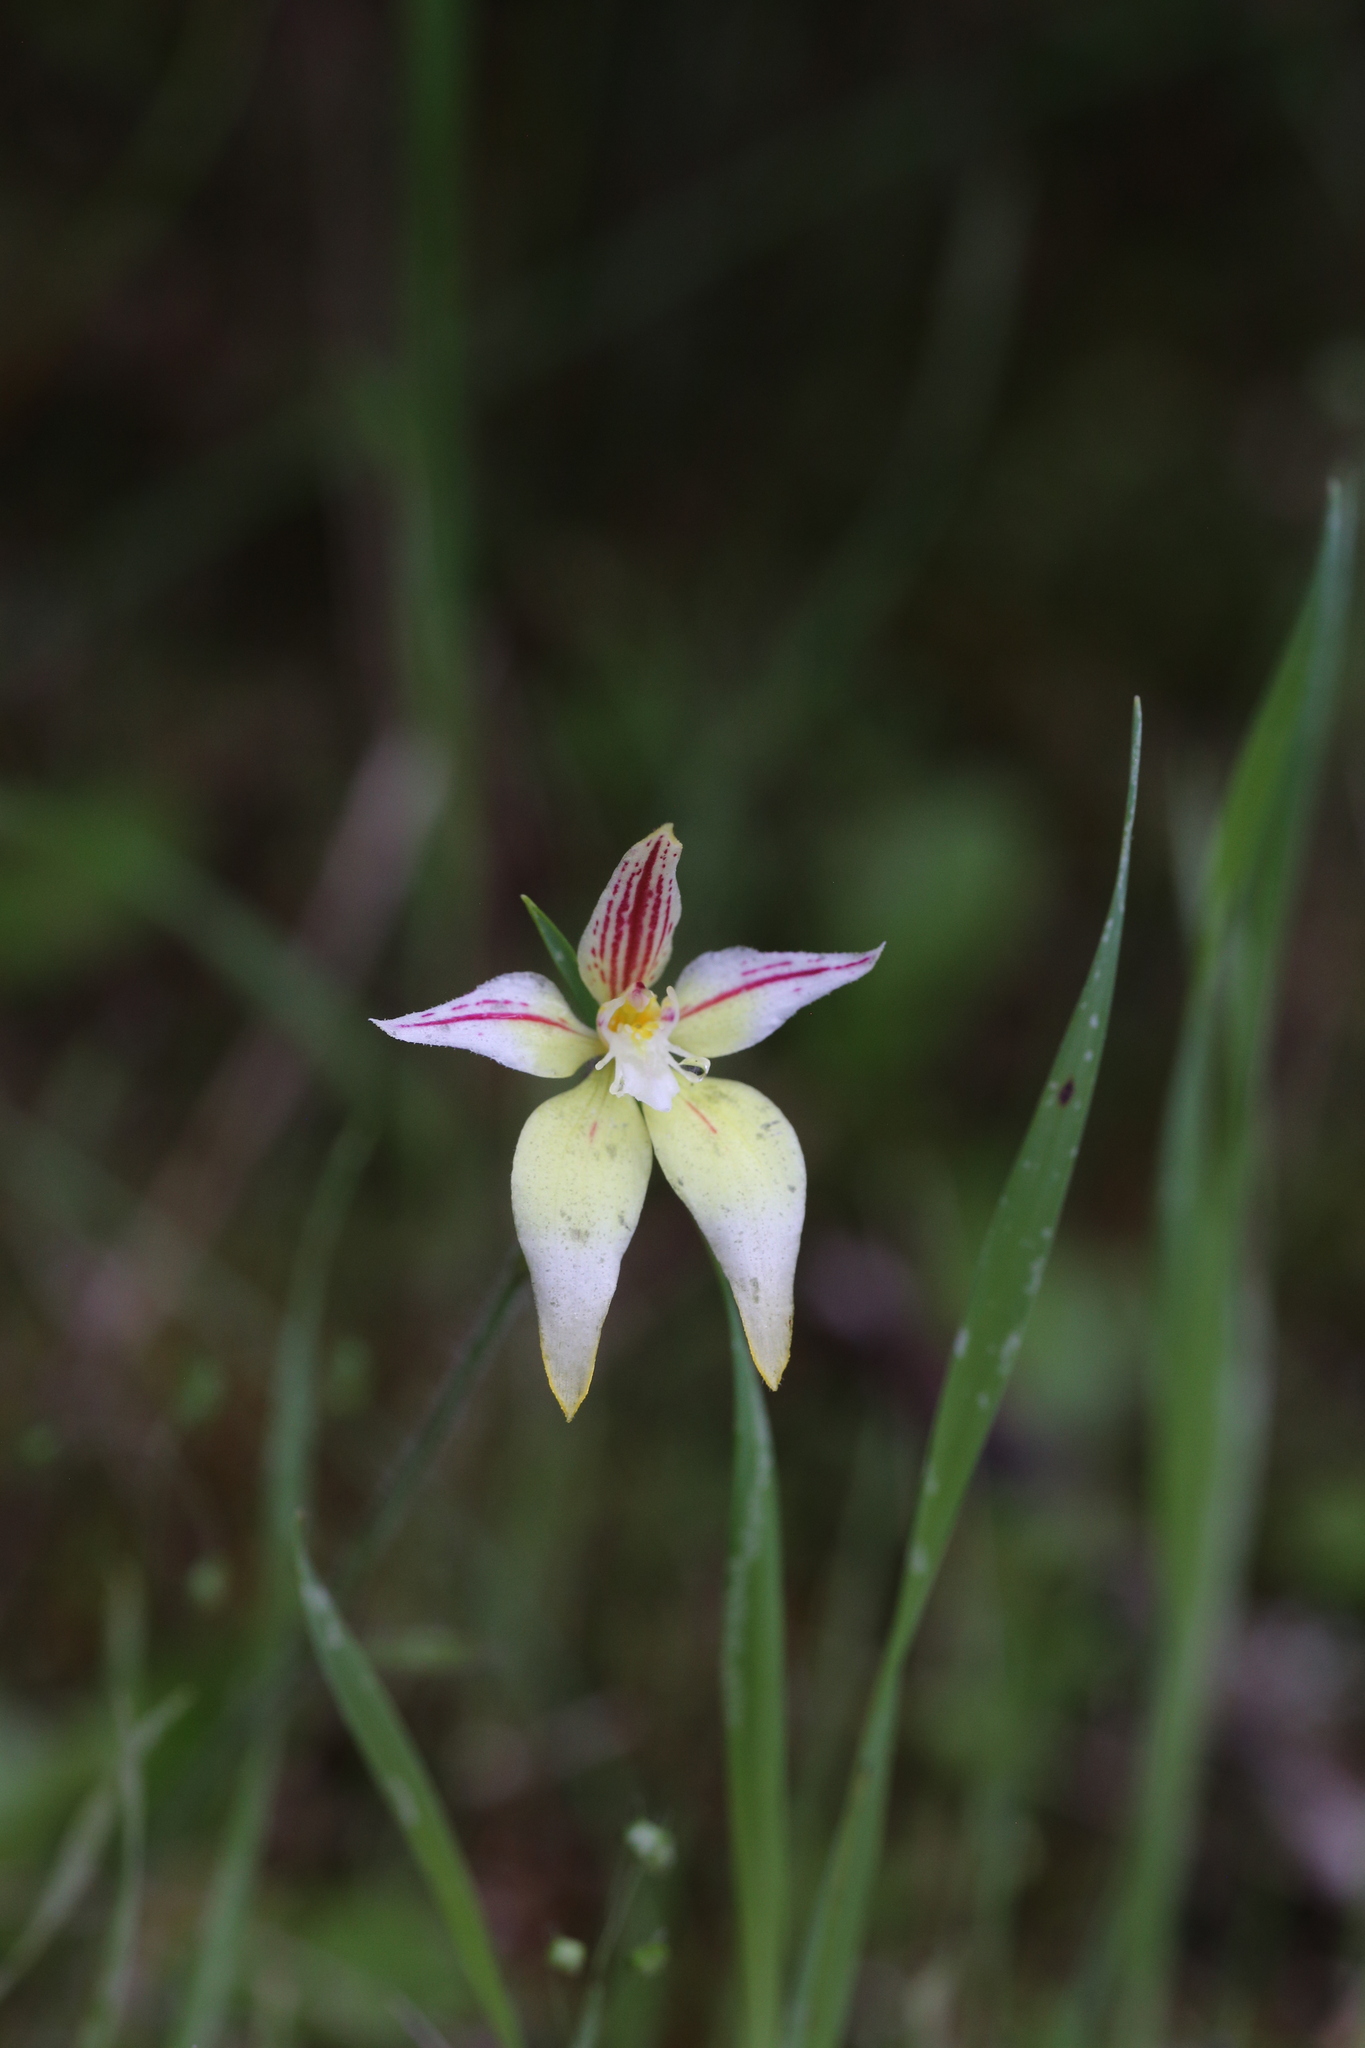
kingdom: Plantae
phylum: Tracheophyta
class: Liliopsida
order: Asparagales
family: Orchidaceae
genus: Caladenia
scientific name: Caladenia flava
